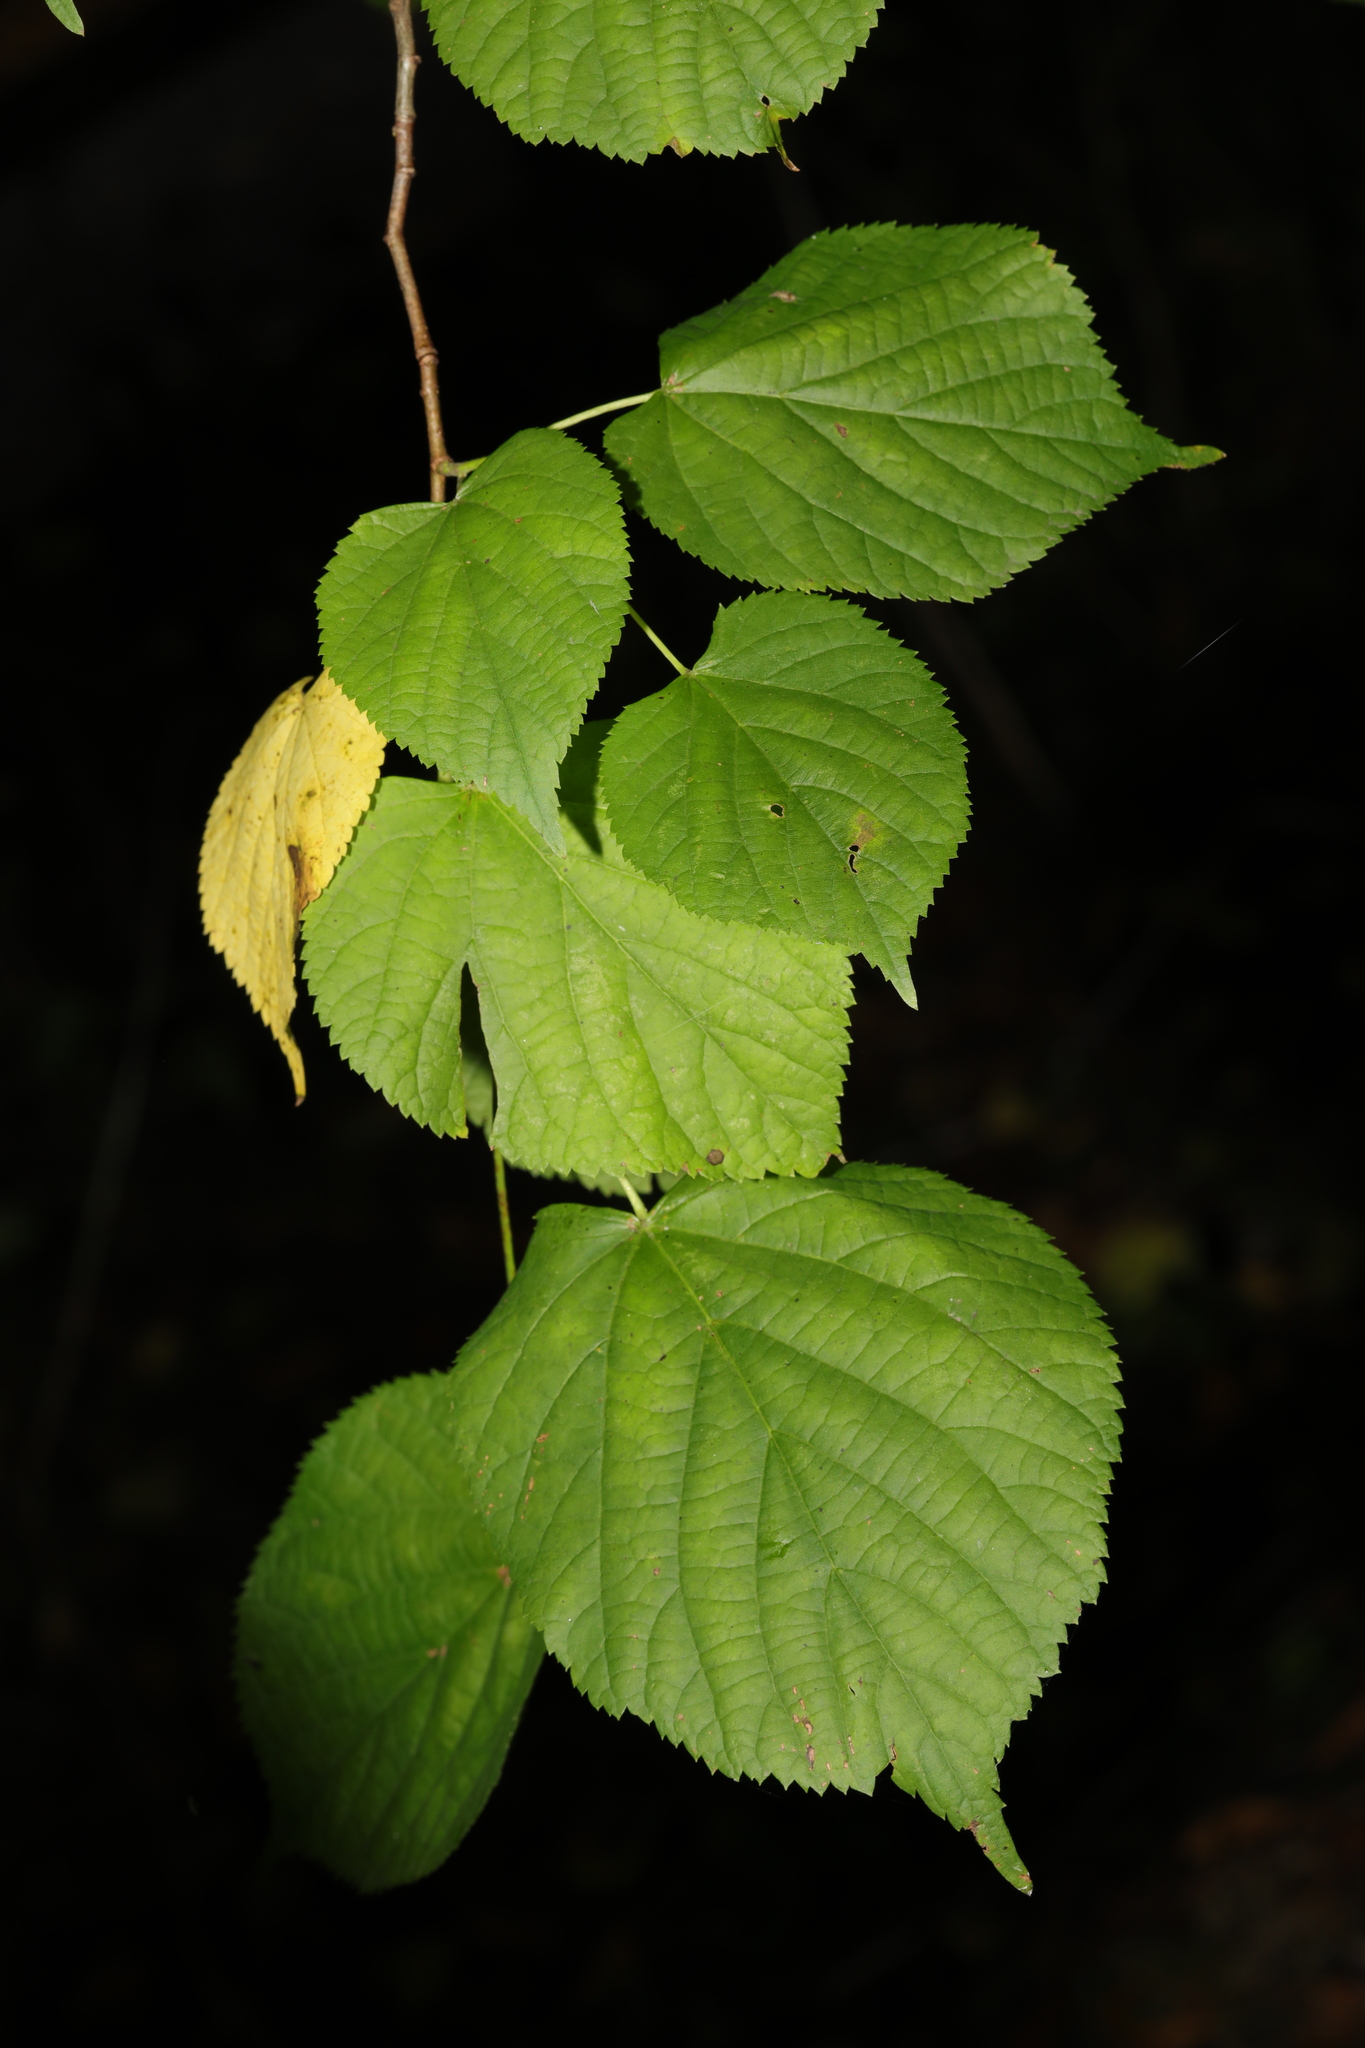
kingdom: Plantae
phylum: Tracheophyta
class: Magnoliopsida
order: Malvales
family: Malvaceae
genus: Tilia
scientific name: Tilia europaea
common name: European linden
